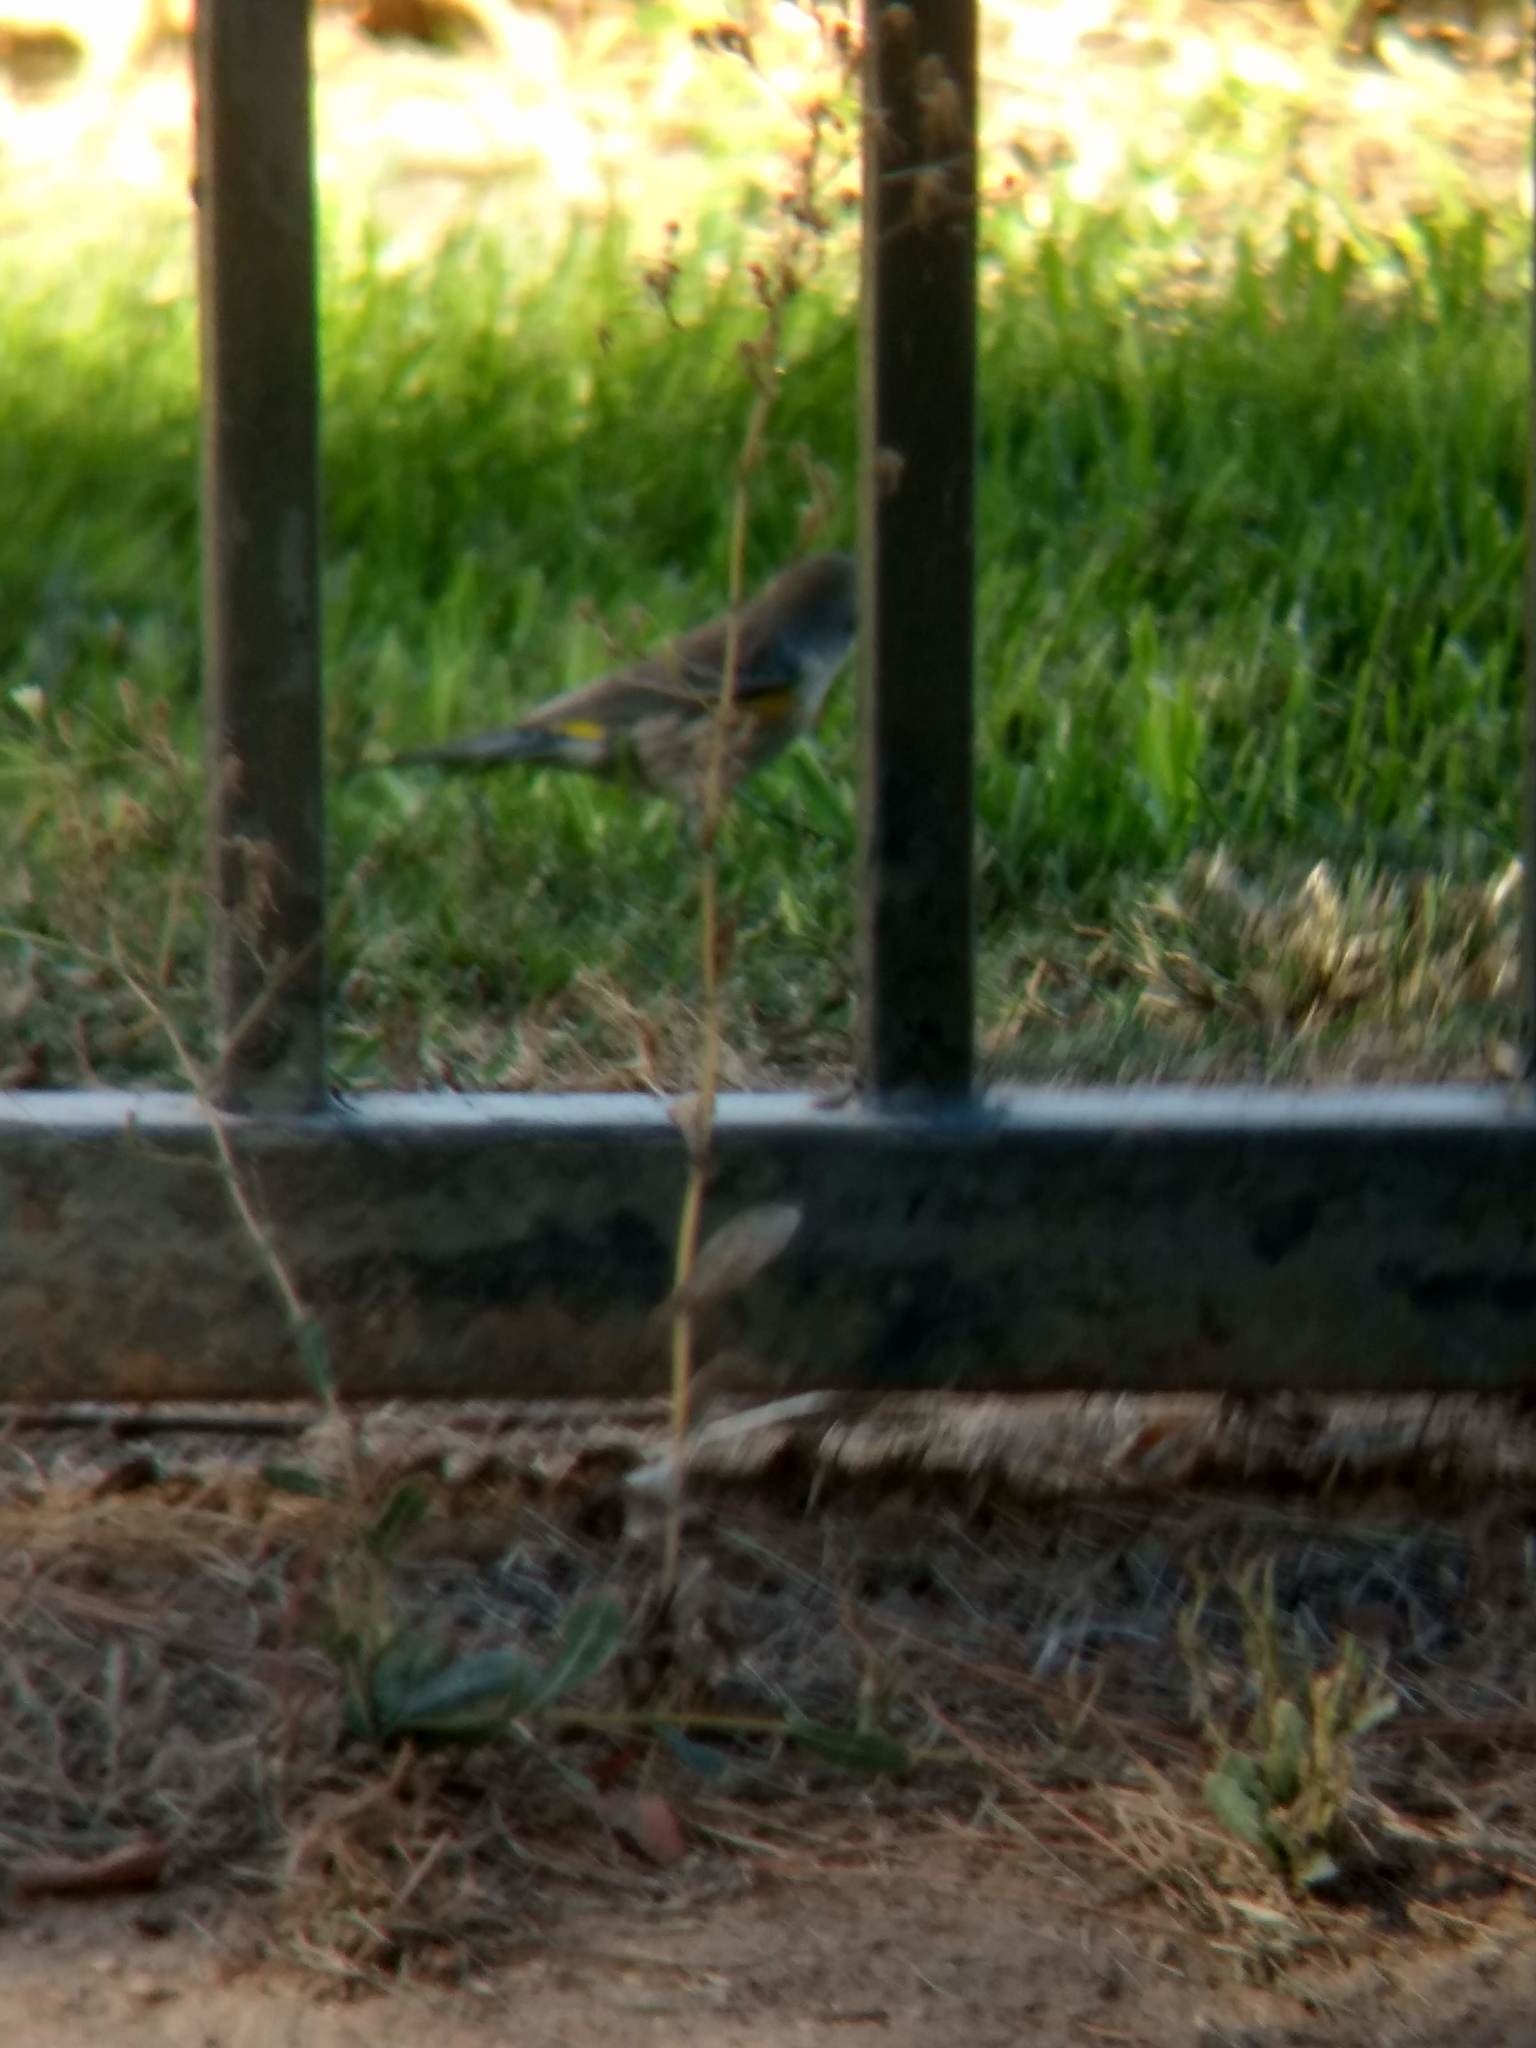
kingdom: Animalia
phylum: Chordata
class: Aves
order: Passeriformes
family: Parulidae
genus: Setophaga
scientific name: Setophaga coronata
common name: Myrtle warbler
